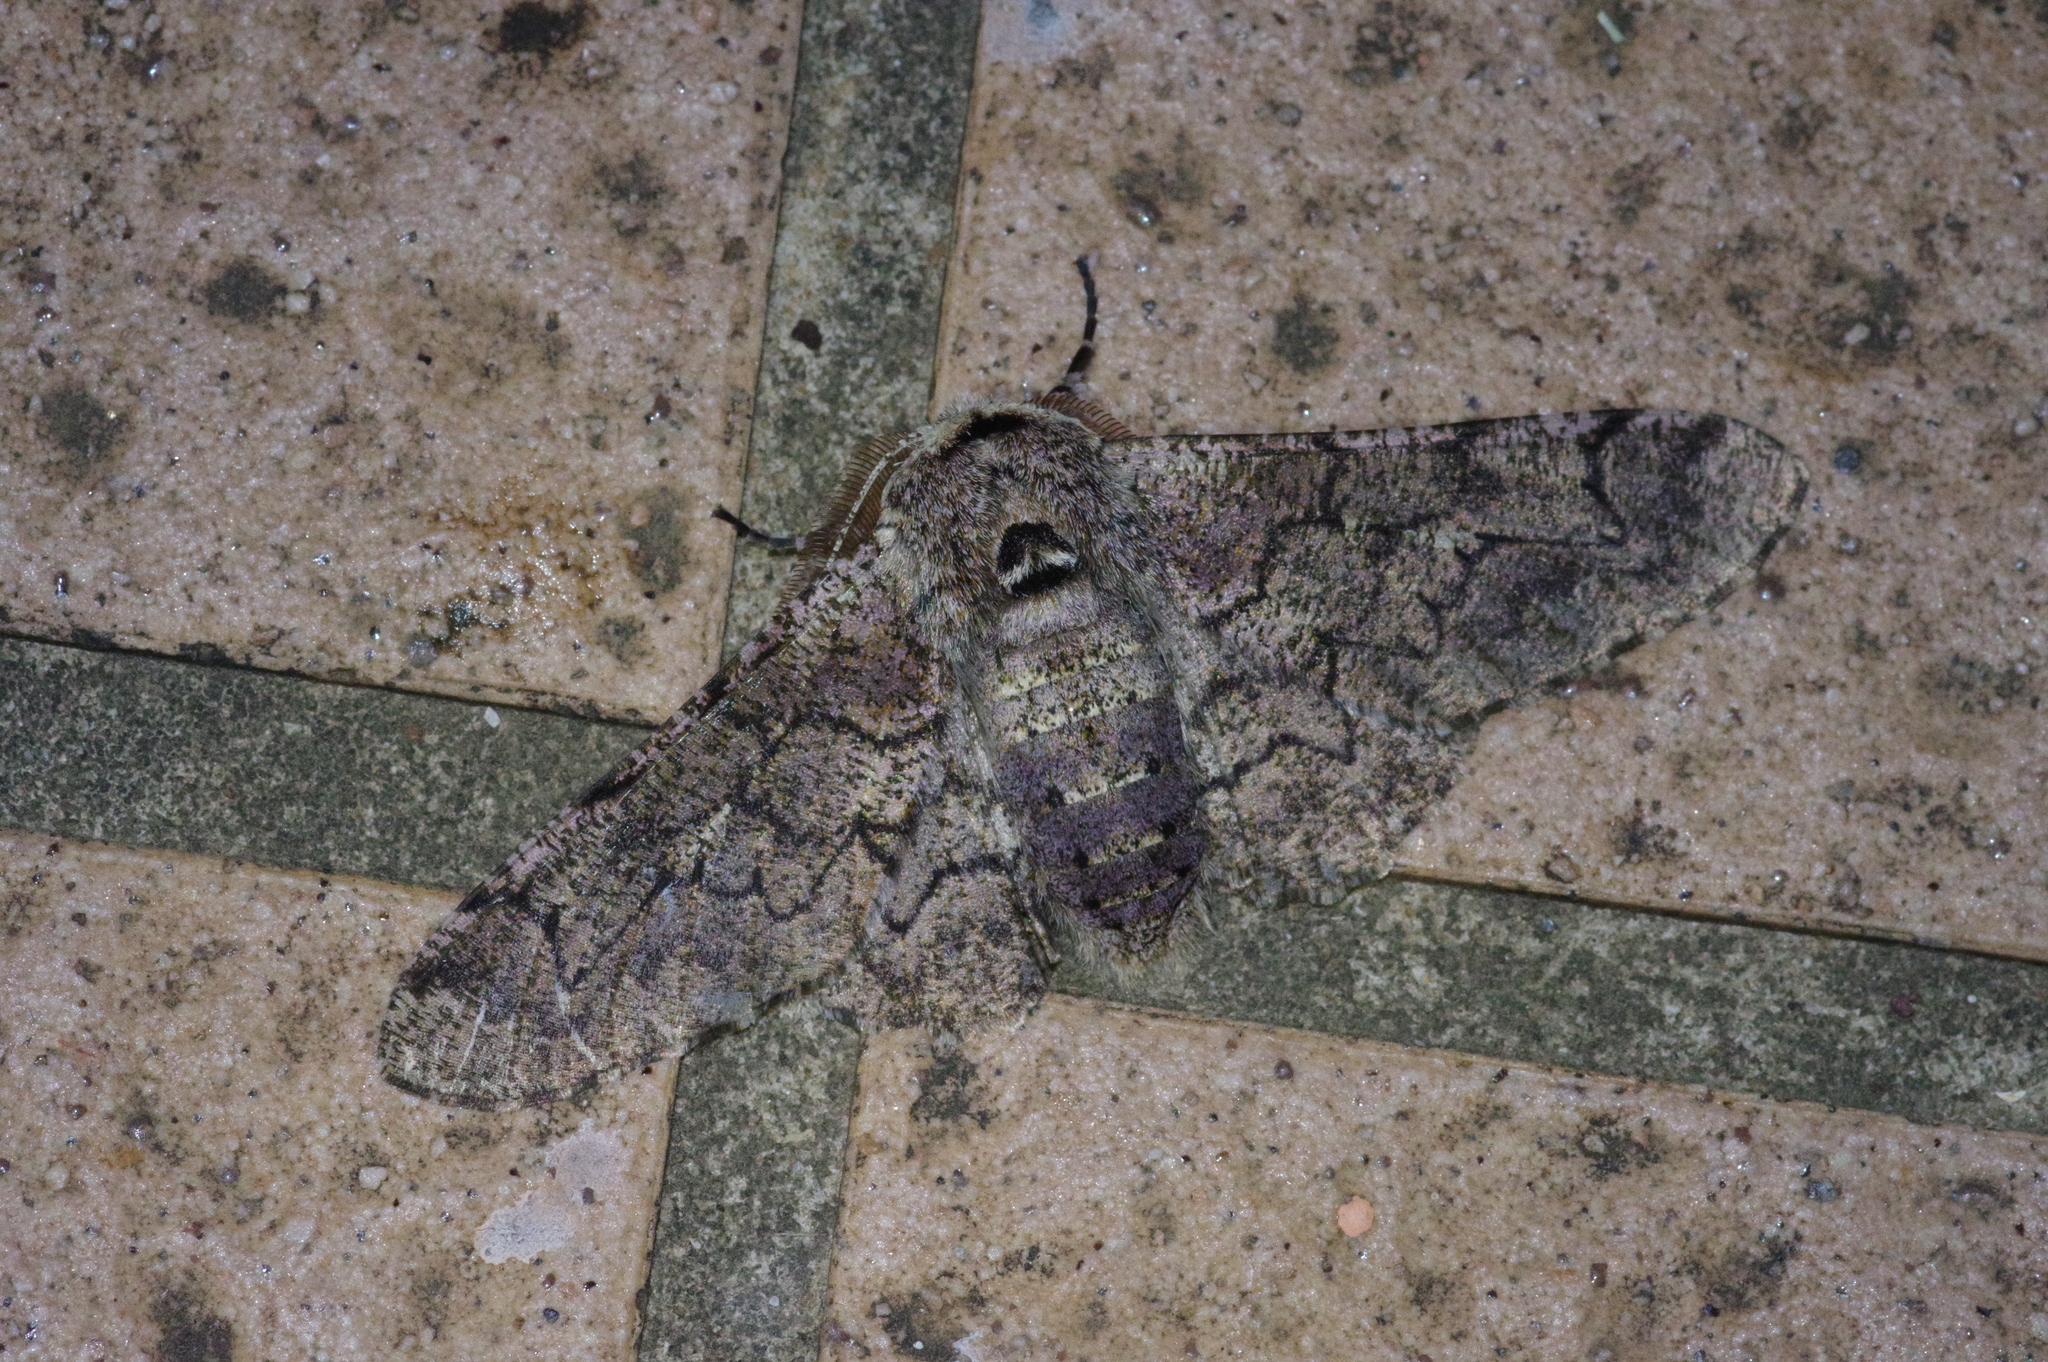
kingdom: Animalia
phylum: Arthropoda
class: Insecta
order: Lepidoptera
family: Geometridae
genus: Biston
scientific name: Biston robustum
